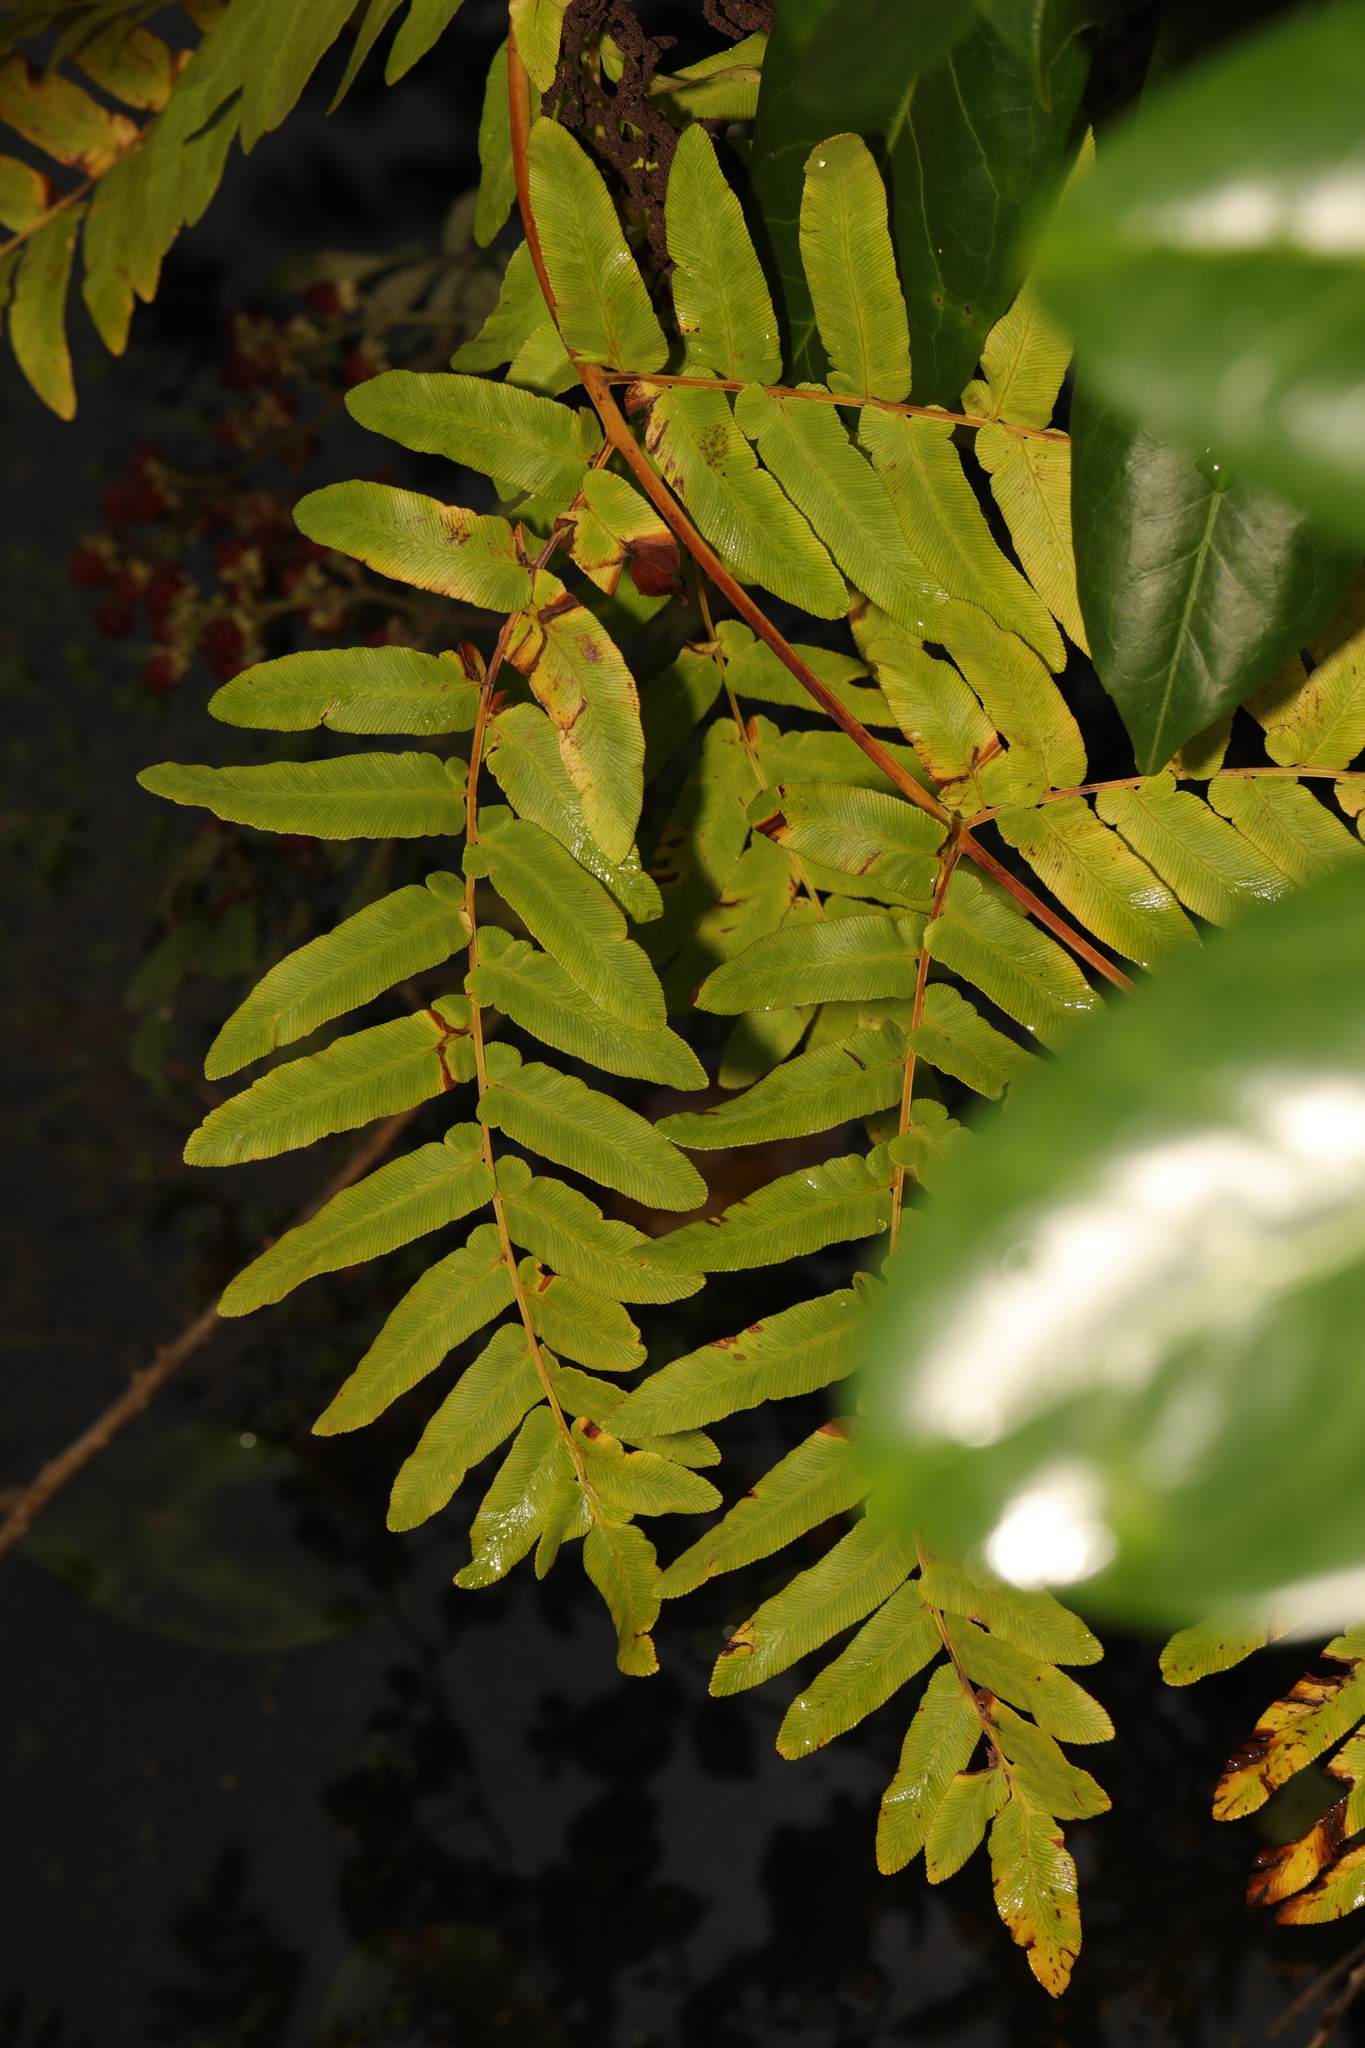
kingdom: Plantae
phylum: Tracheophyta
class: Polypodiopsida
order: Osmundales
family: Osmundaceae
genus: Osmunda
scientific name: Osmunda regalis
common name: Royal fern
